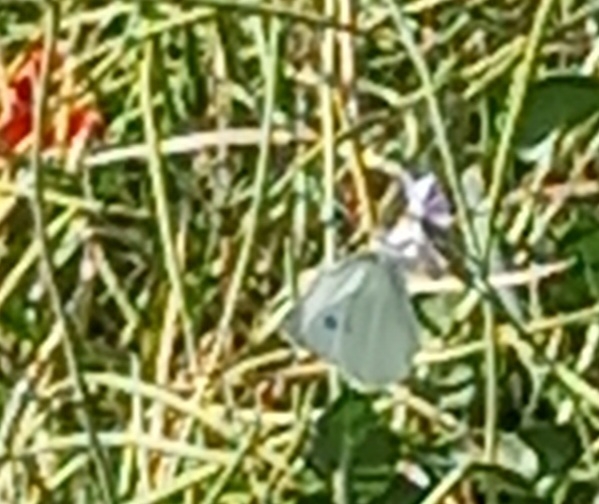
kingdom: Animalia
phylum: Arthropoda
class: Insecta
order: Lepidoptera
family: Pieridae
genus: Pieris
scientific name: Pieris rapae
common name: Small white
